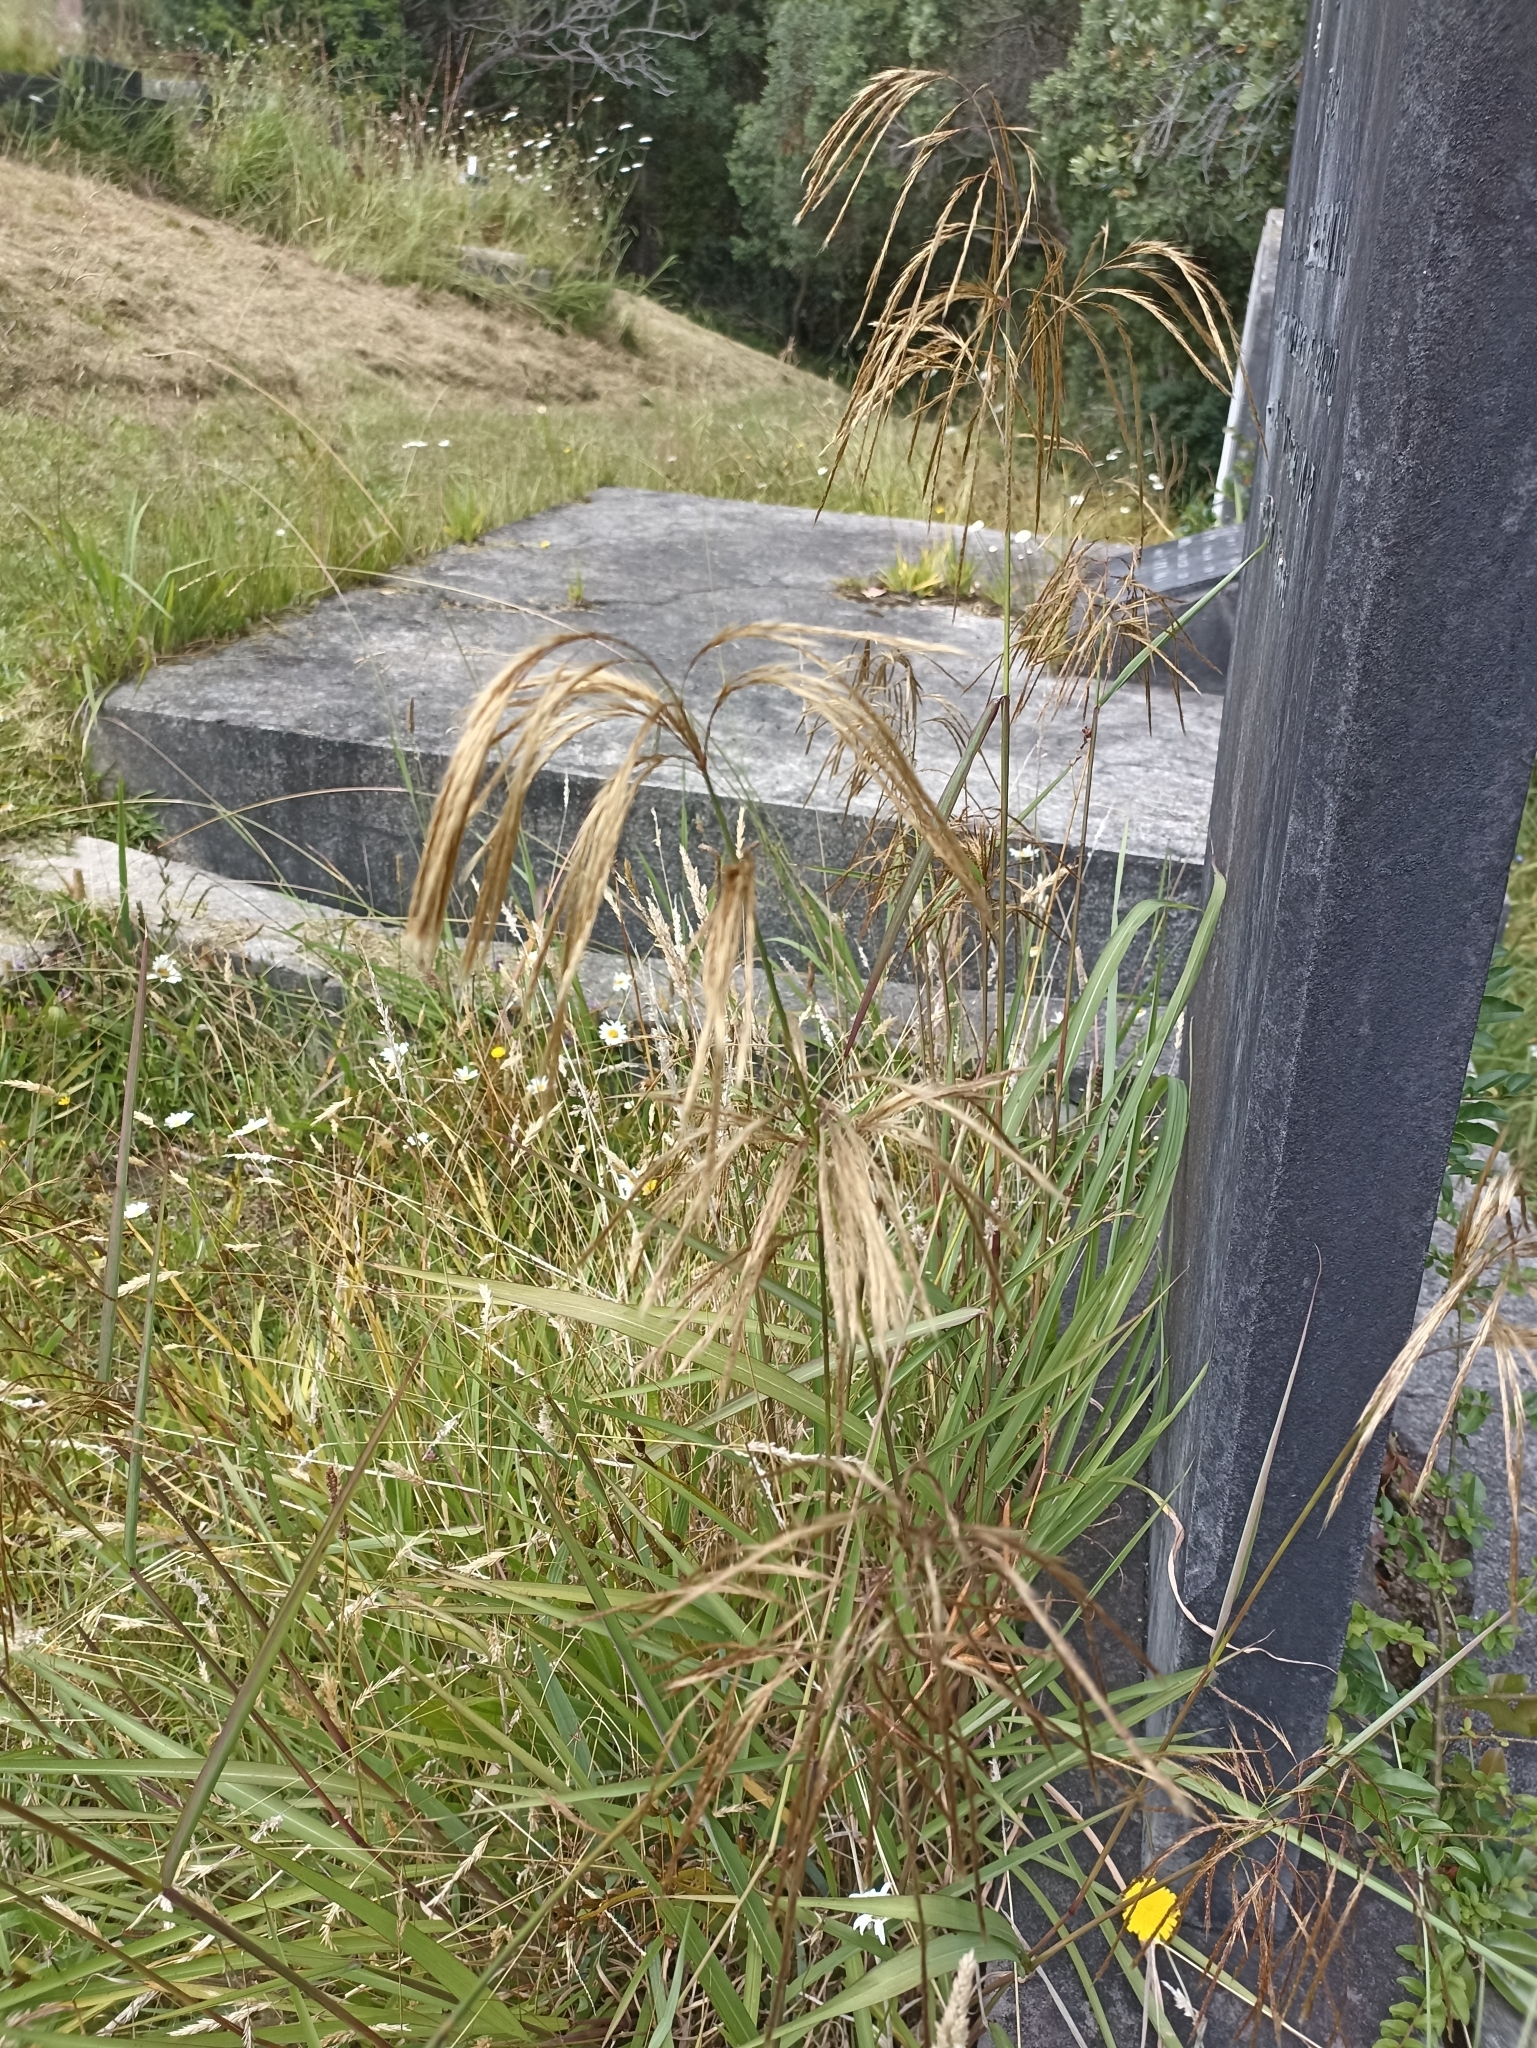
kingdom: Plantae
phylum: Tracheophyta
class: Liliopsida
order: Poales
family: Poaceae
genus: Miscanthus
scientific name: Miscanthus nepalensis
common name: Nepal silver grass
